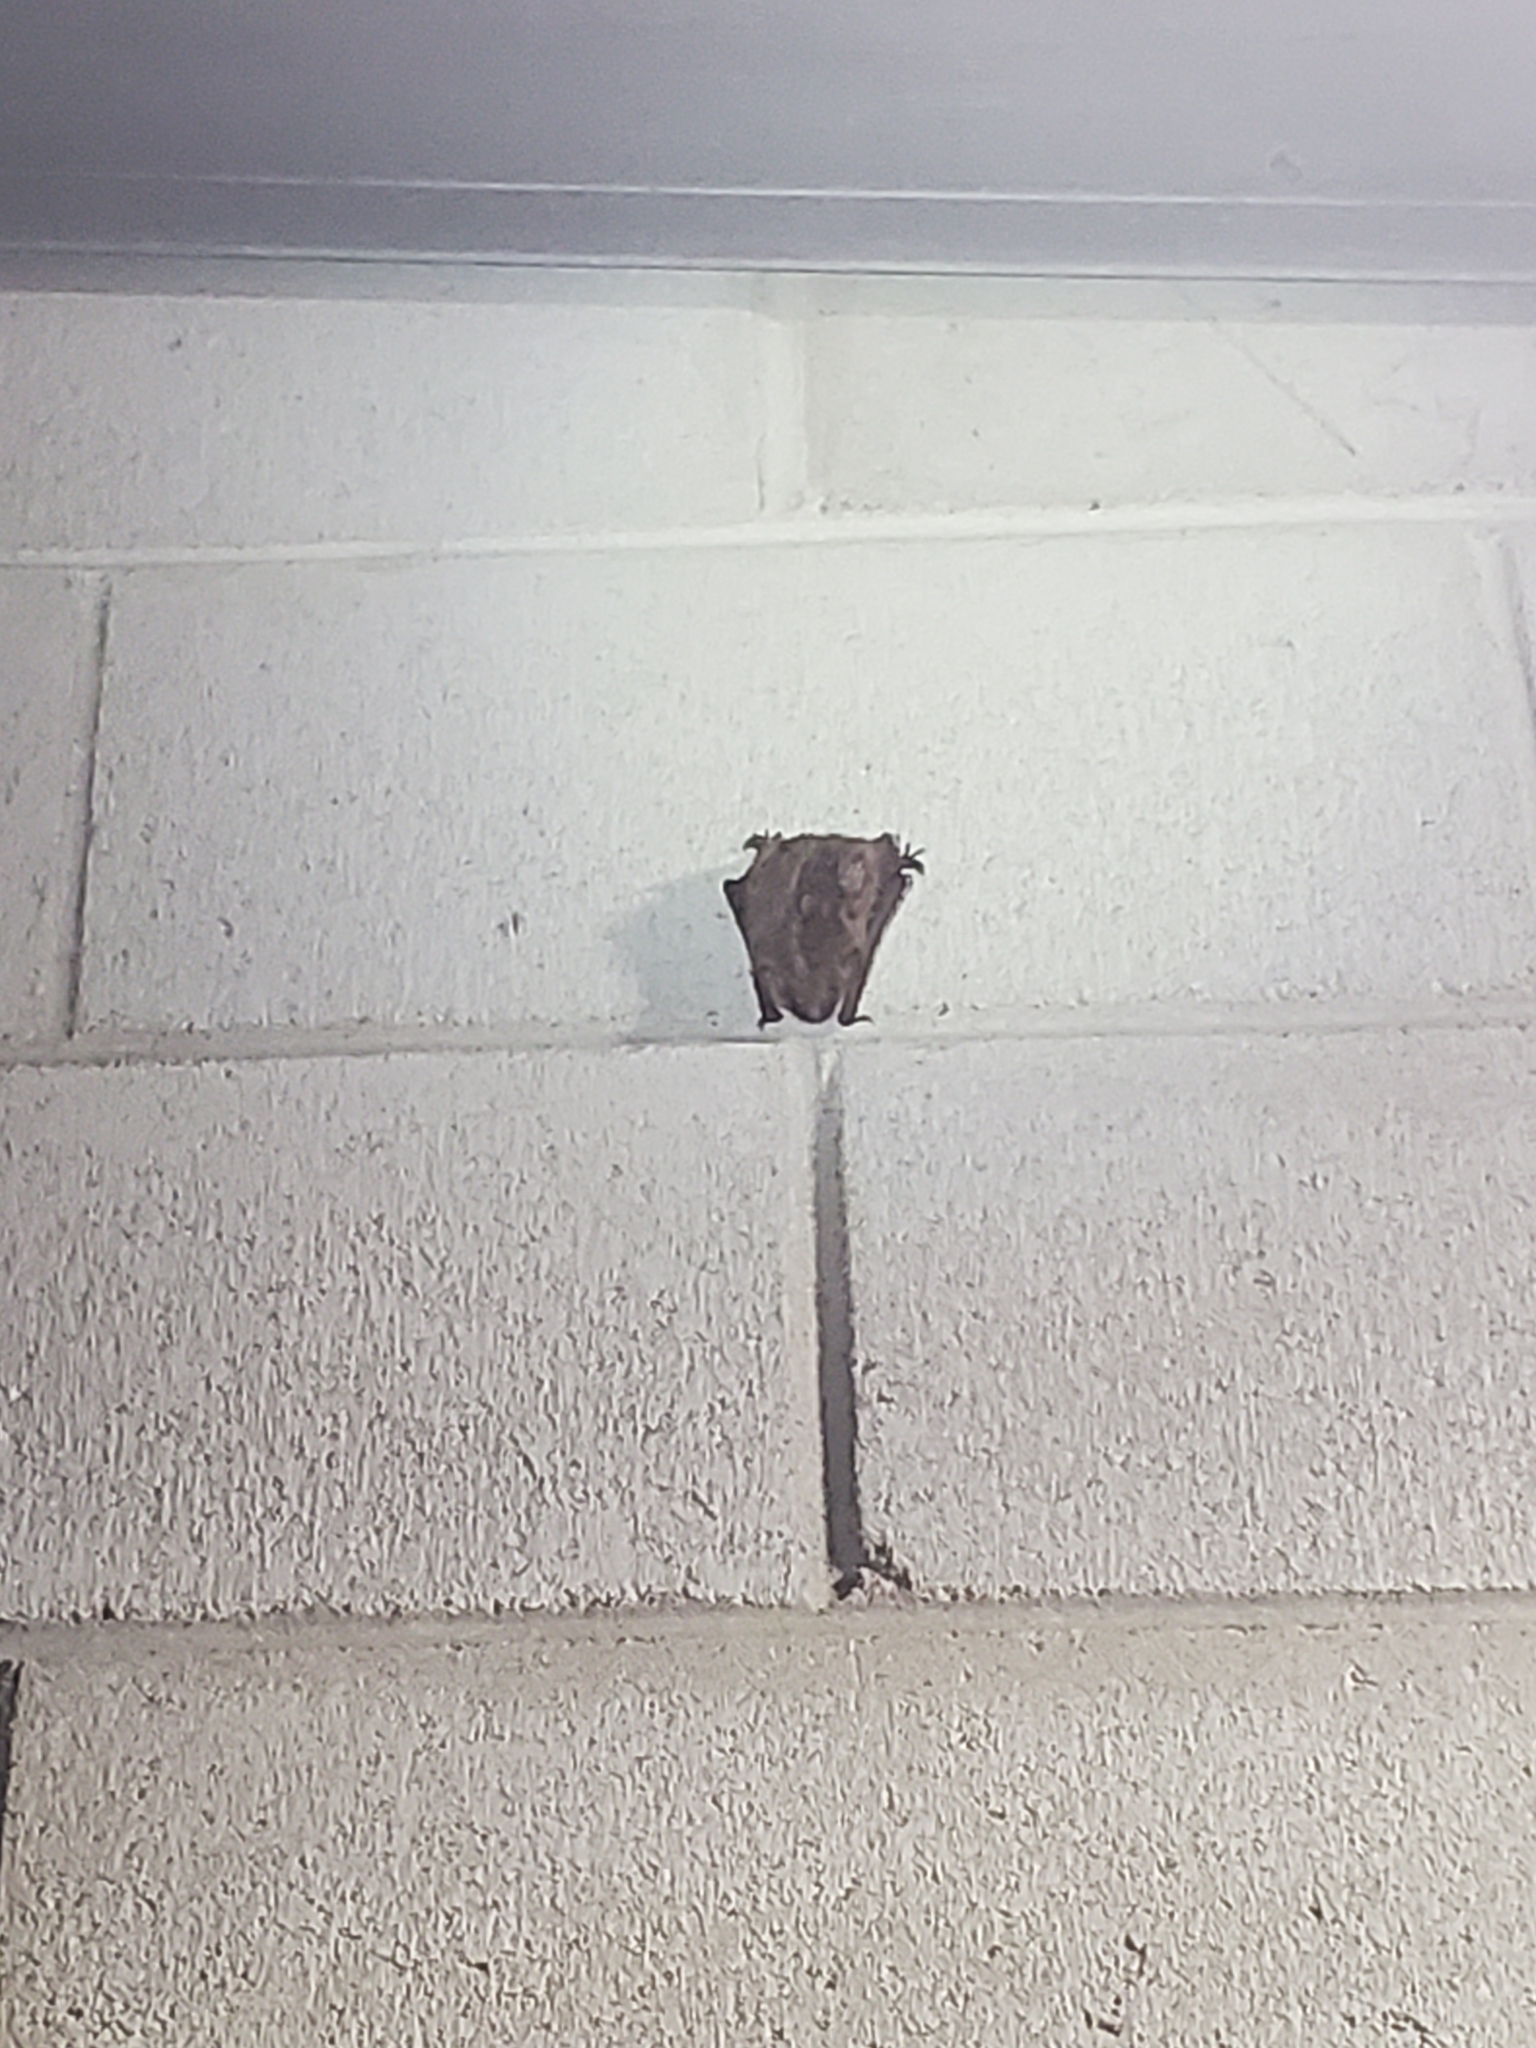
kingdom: Animalia
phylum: Chordata
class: Mammalia
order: Chiroptera
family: Vespertilionidae
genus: Eptesicus
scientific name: Eptesicus fuscus
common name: Big brown bat
